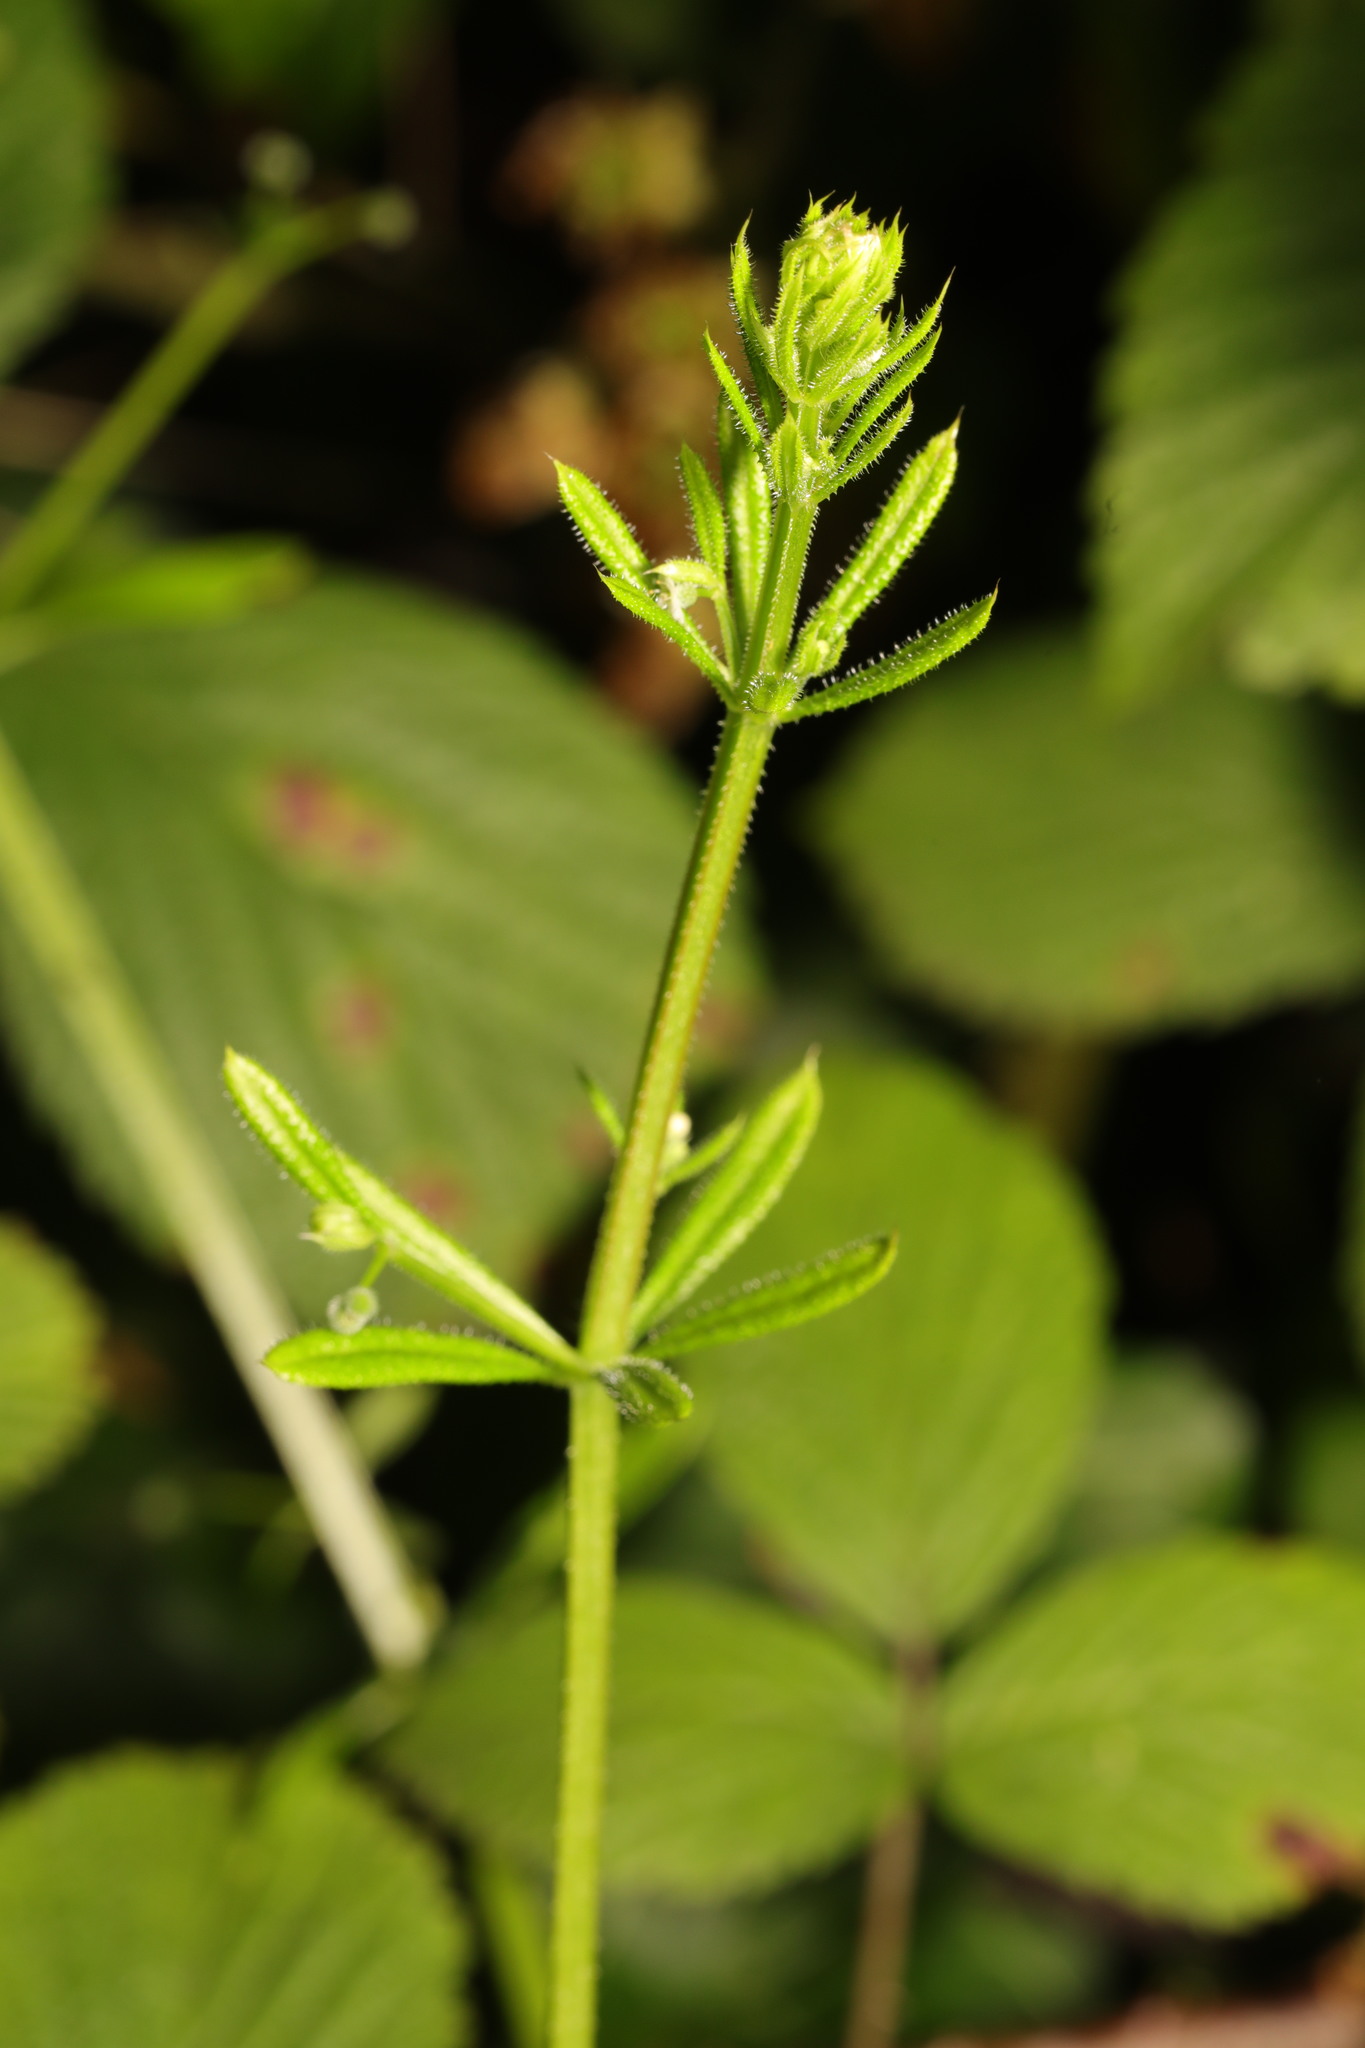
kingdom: Plantae
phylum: Tracheophyta
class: Magnoliopsida
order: Gentianales
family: Rubiaceae
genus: Galium
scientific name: Galium aparine
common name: Cleavers
